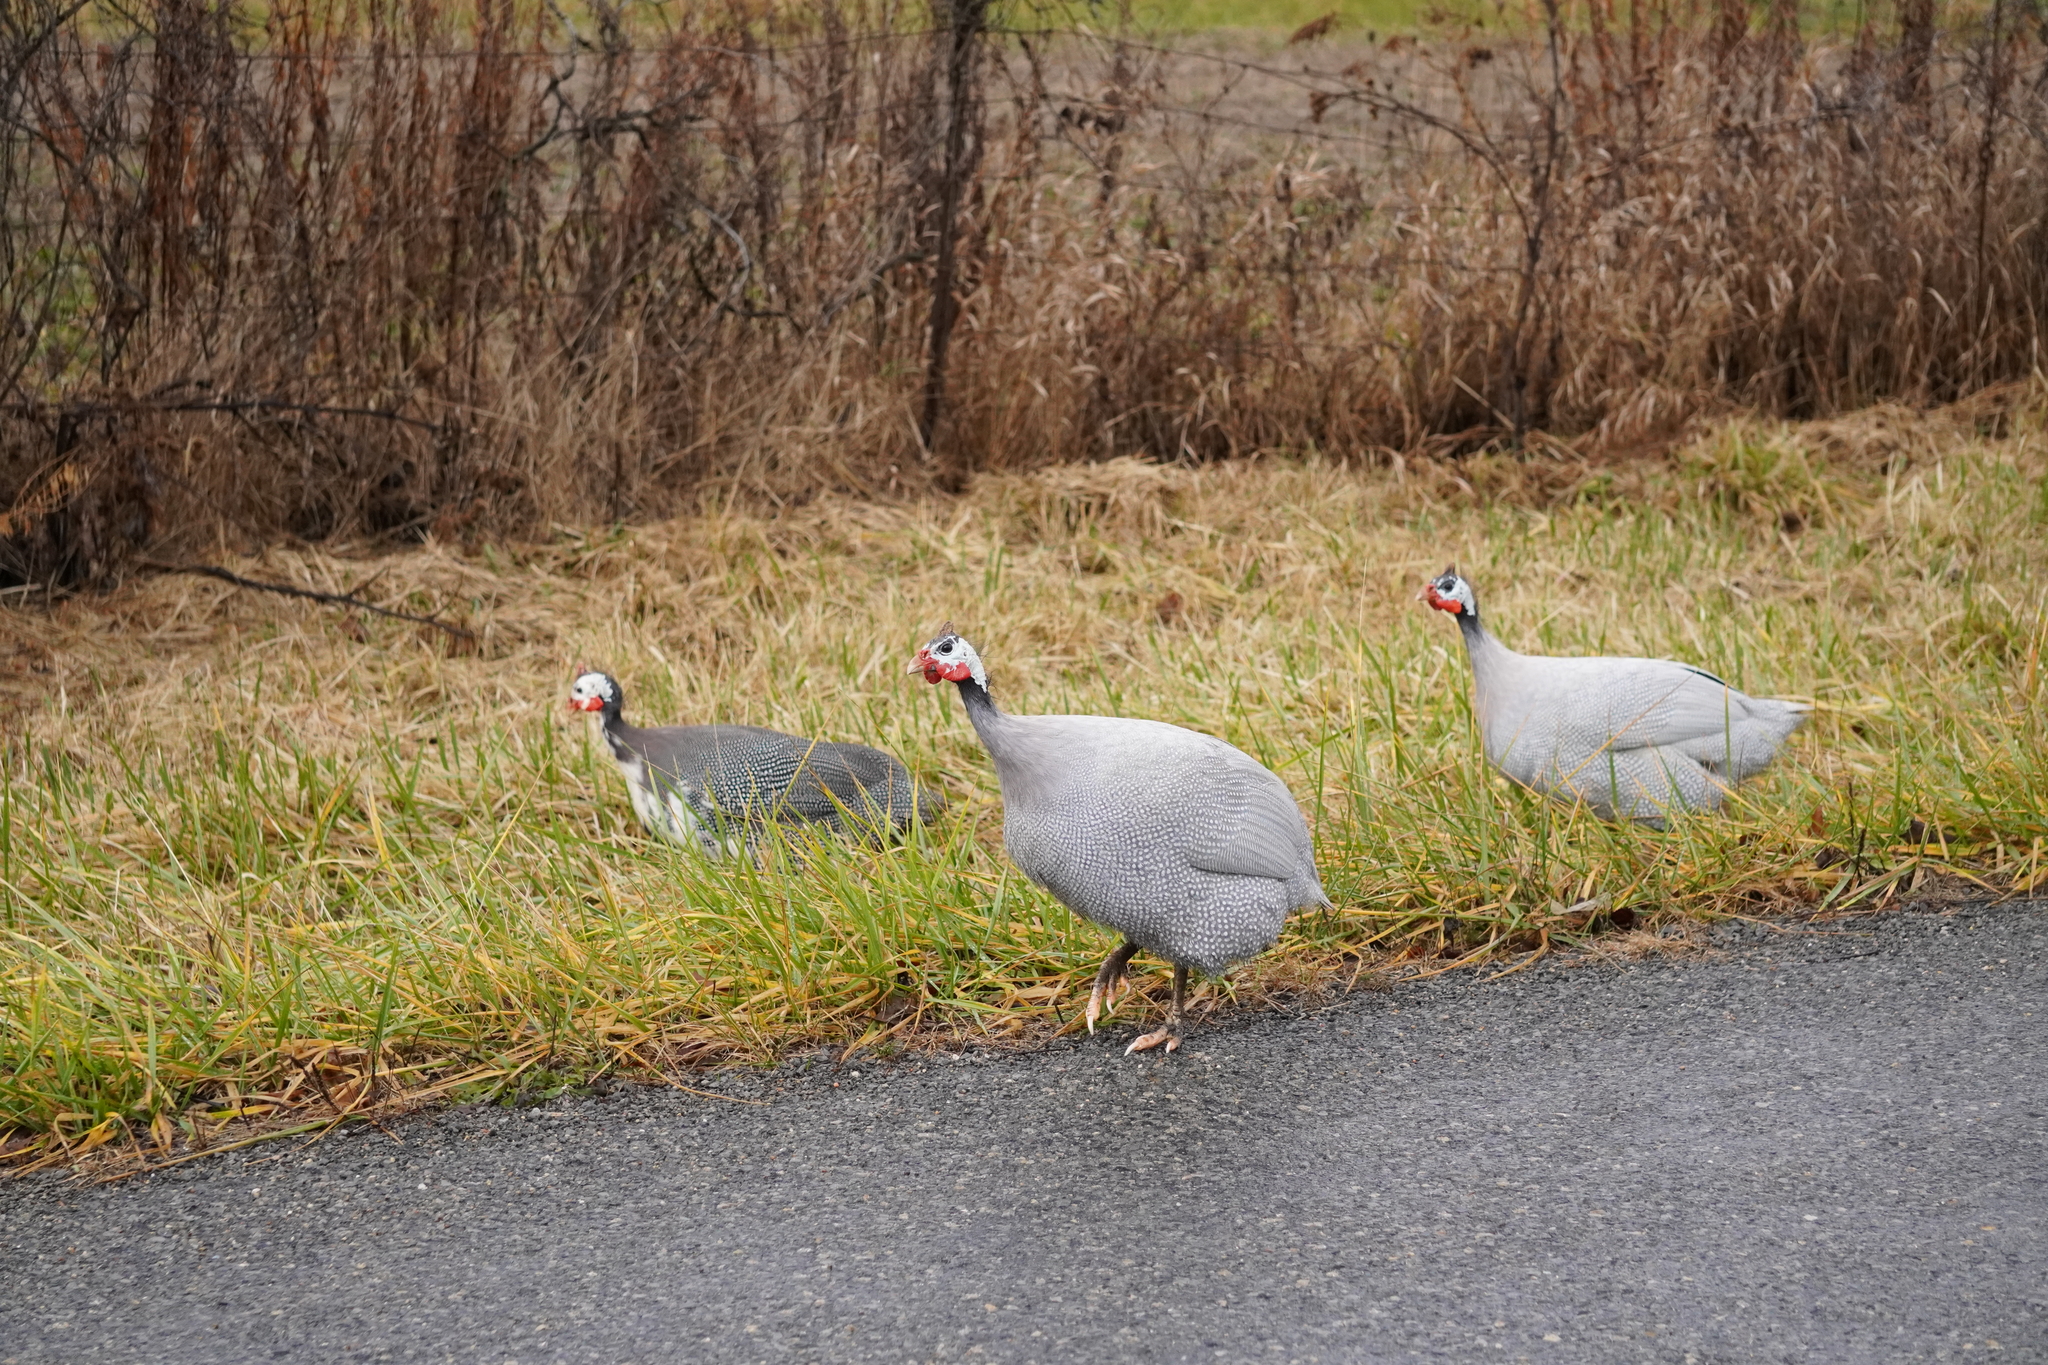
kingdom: Animalia
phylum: Chordata
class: Aves
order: Galliformes
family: Numididae
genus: Numida
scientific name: Numida meleagris
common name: Helmeted guineafowl
